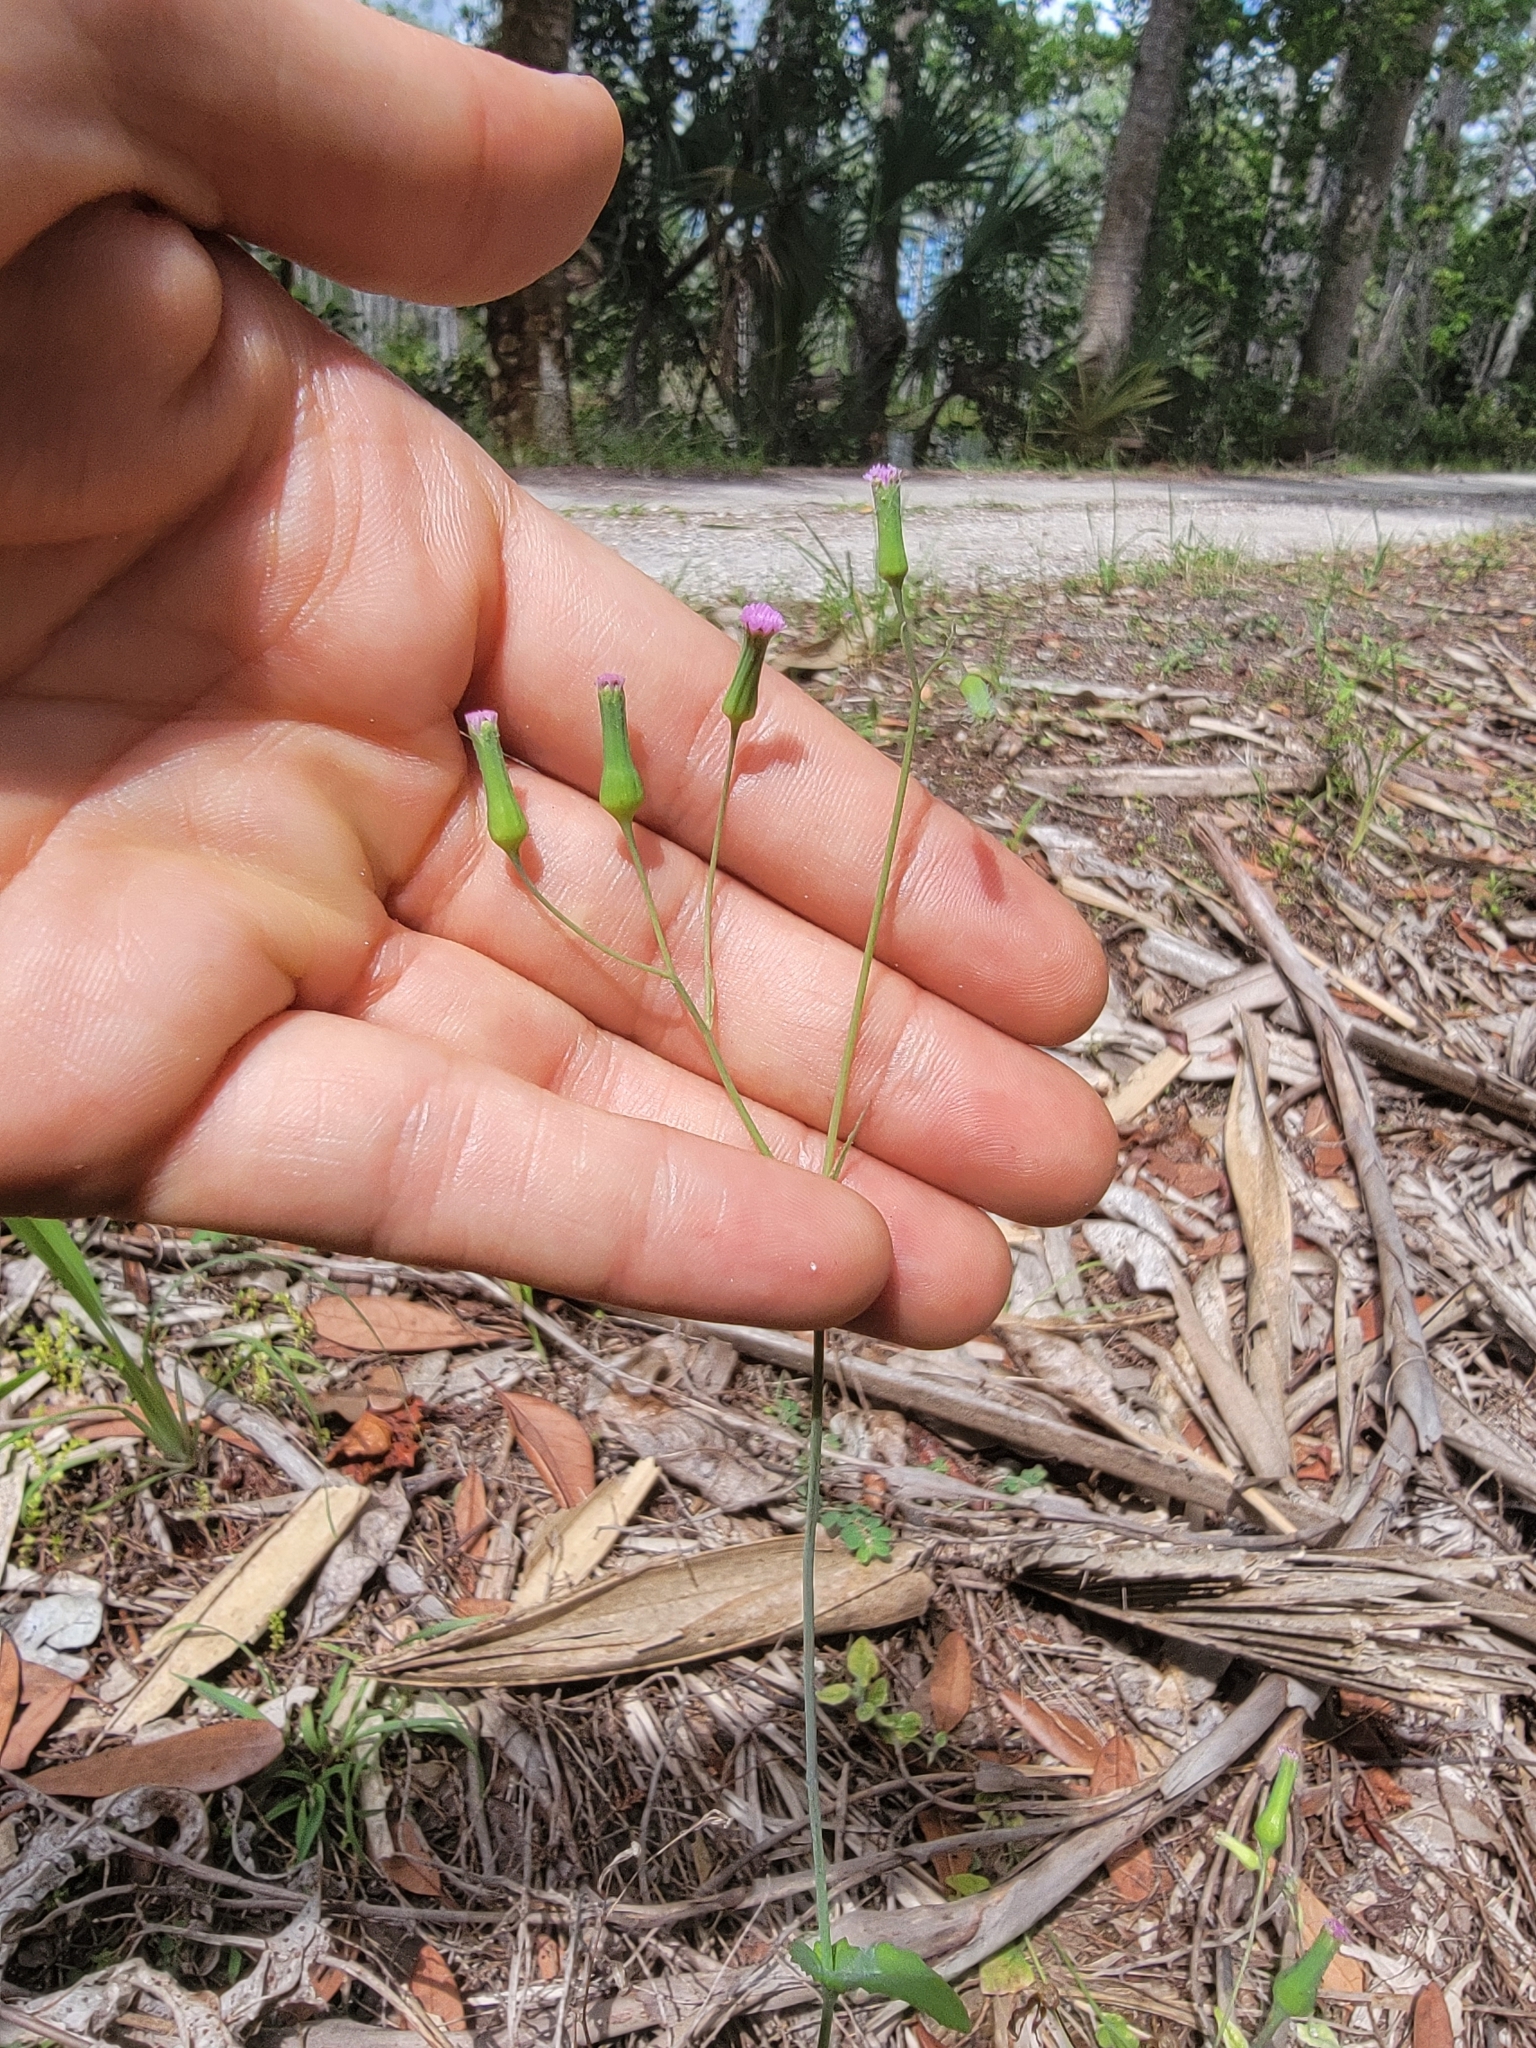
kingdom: Plantae
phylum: Tracheophyta
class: Magnoliopsida
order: Asterales
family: Asteraceae
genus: Emilia
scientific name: Emilia sonchifolia
